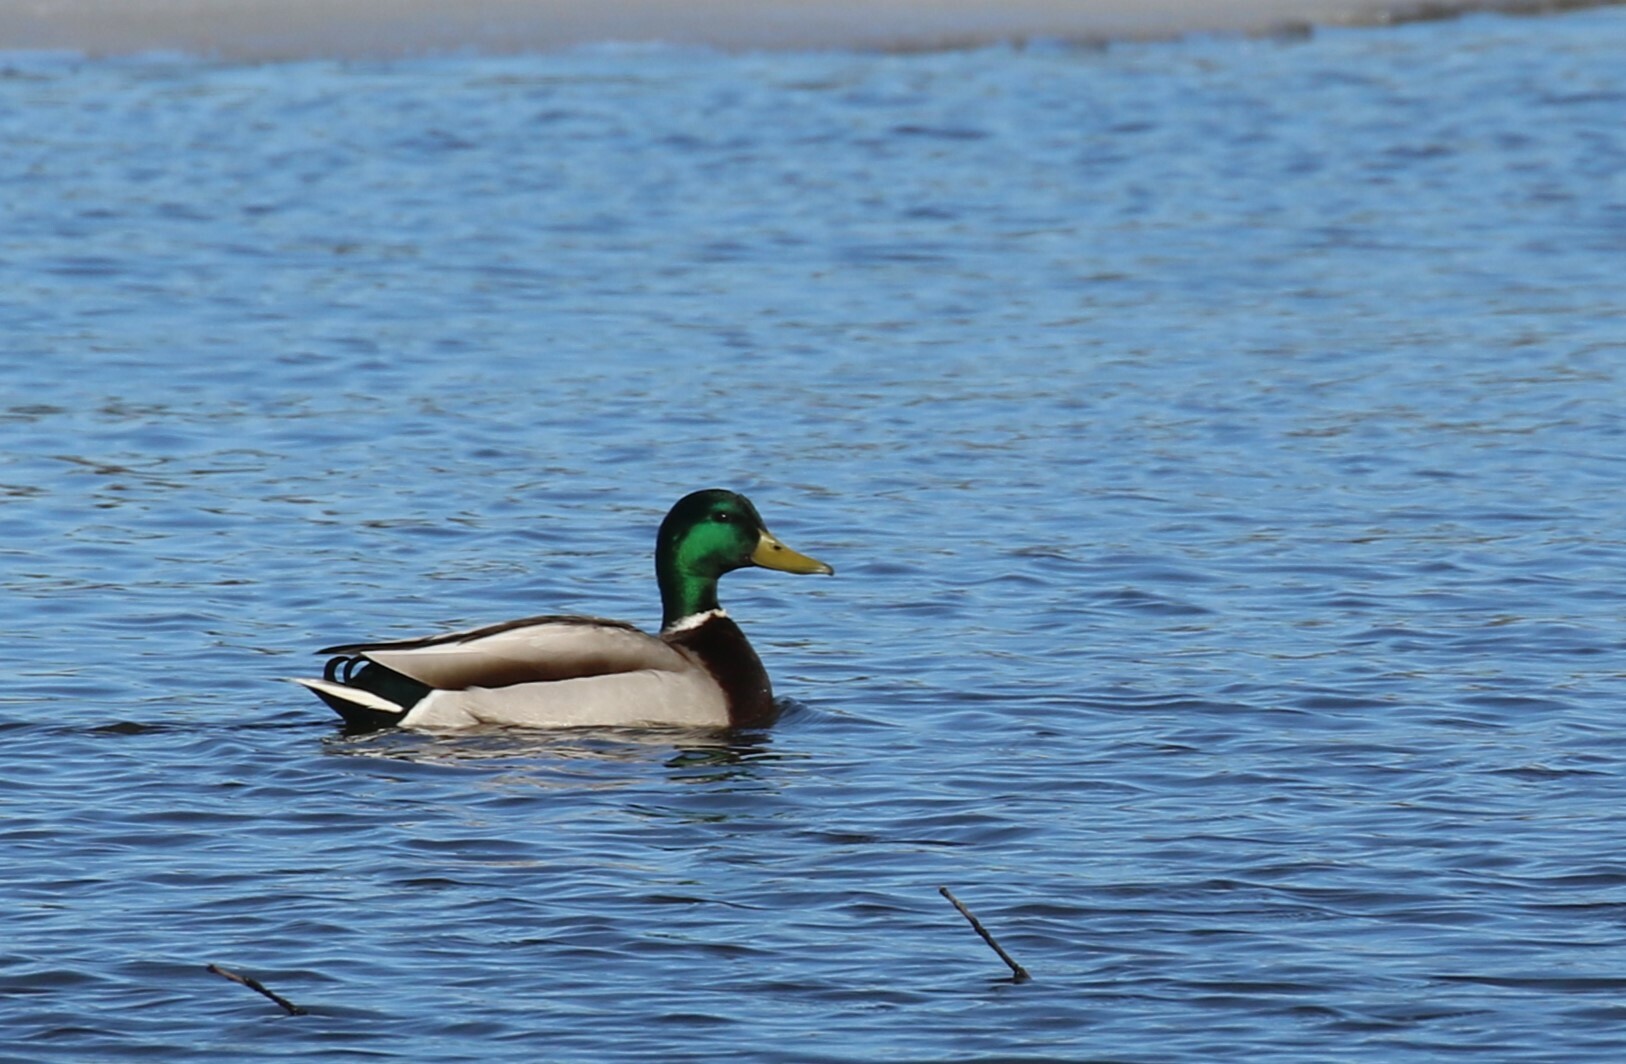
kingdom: Animalia
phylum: Chordata
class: Aves
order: Anseriformes
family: Anatidae
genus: Anas
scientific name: Anas platyrhynchos
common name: Mallard
